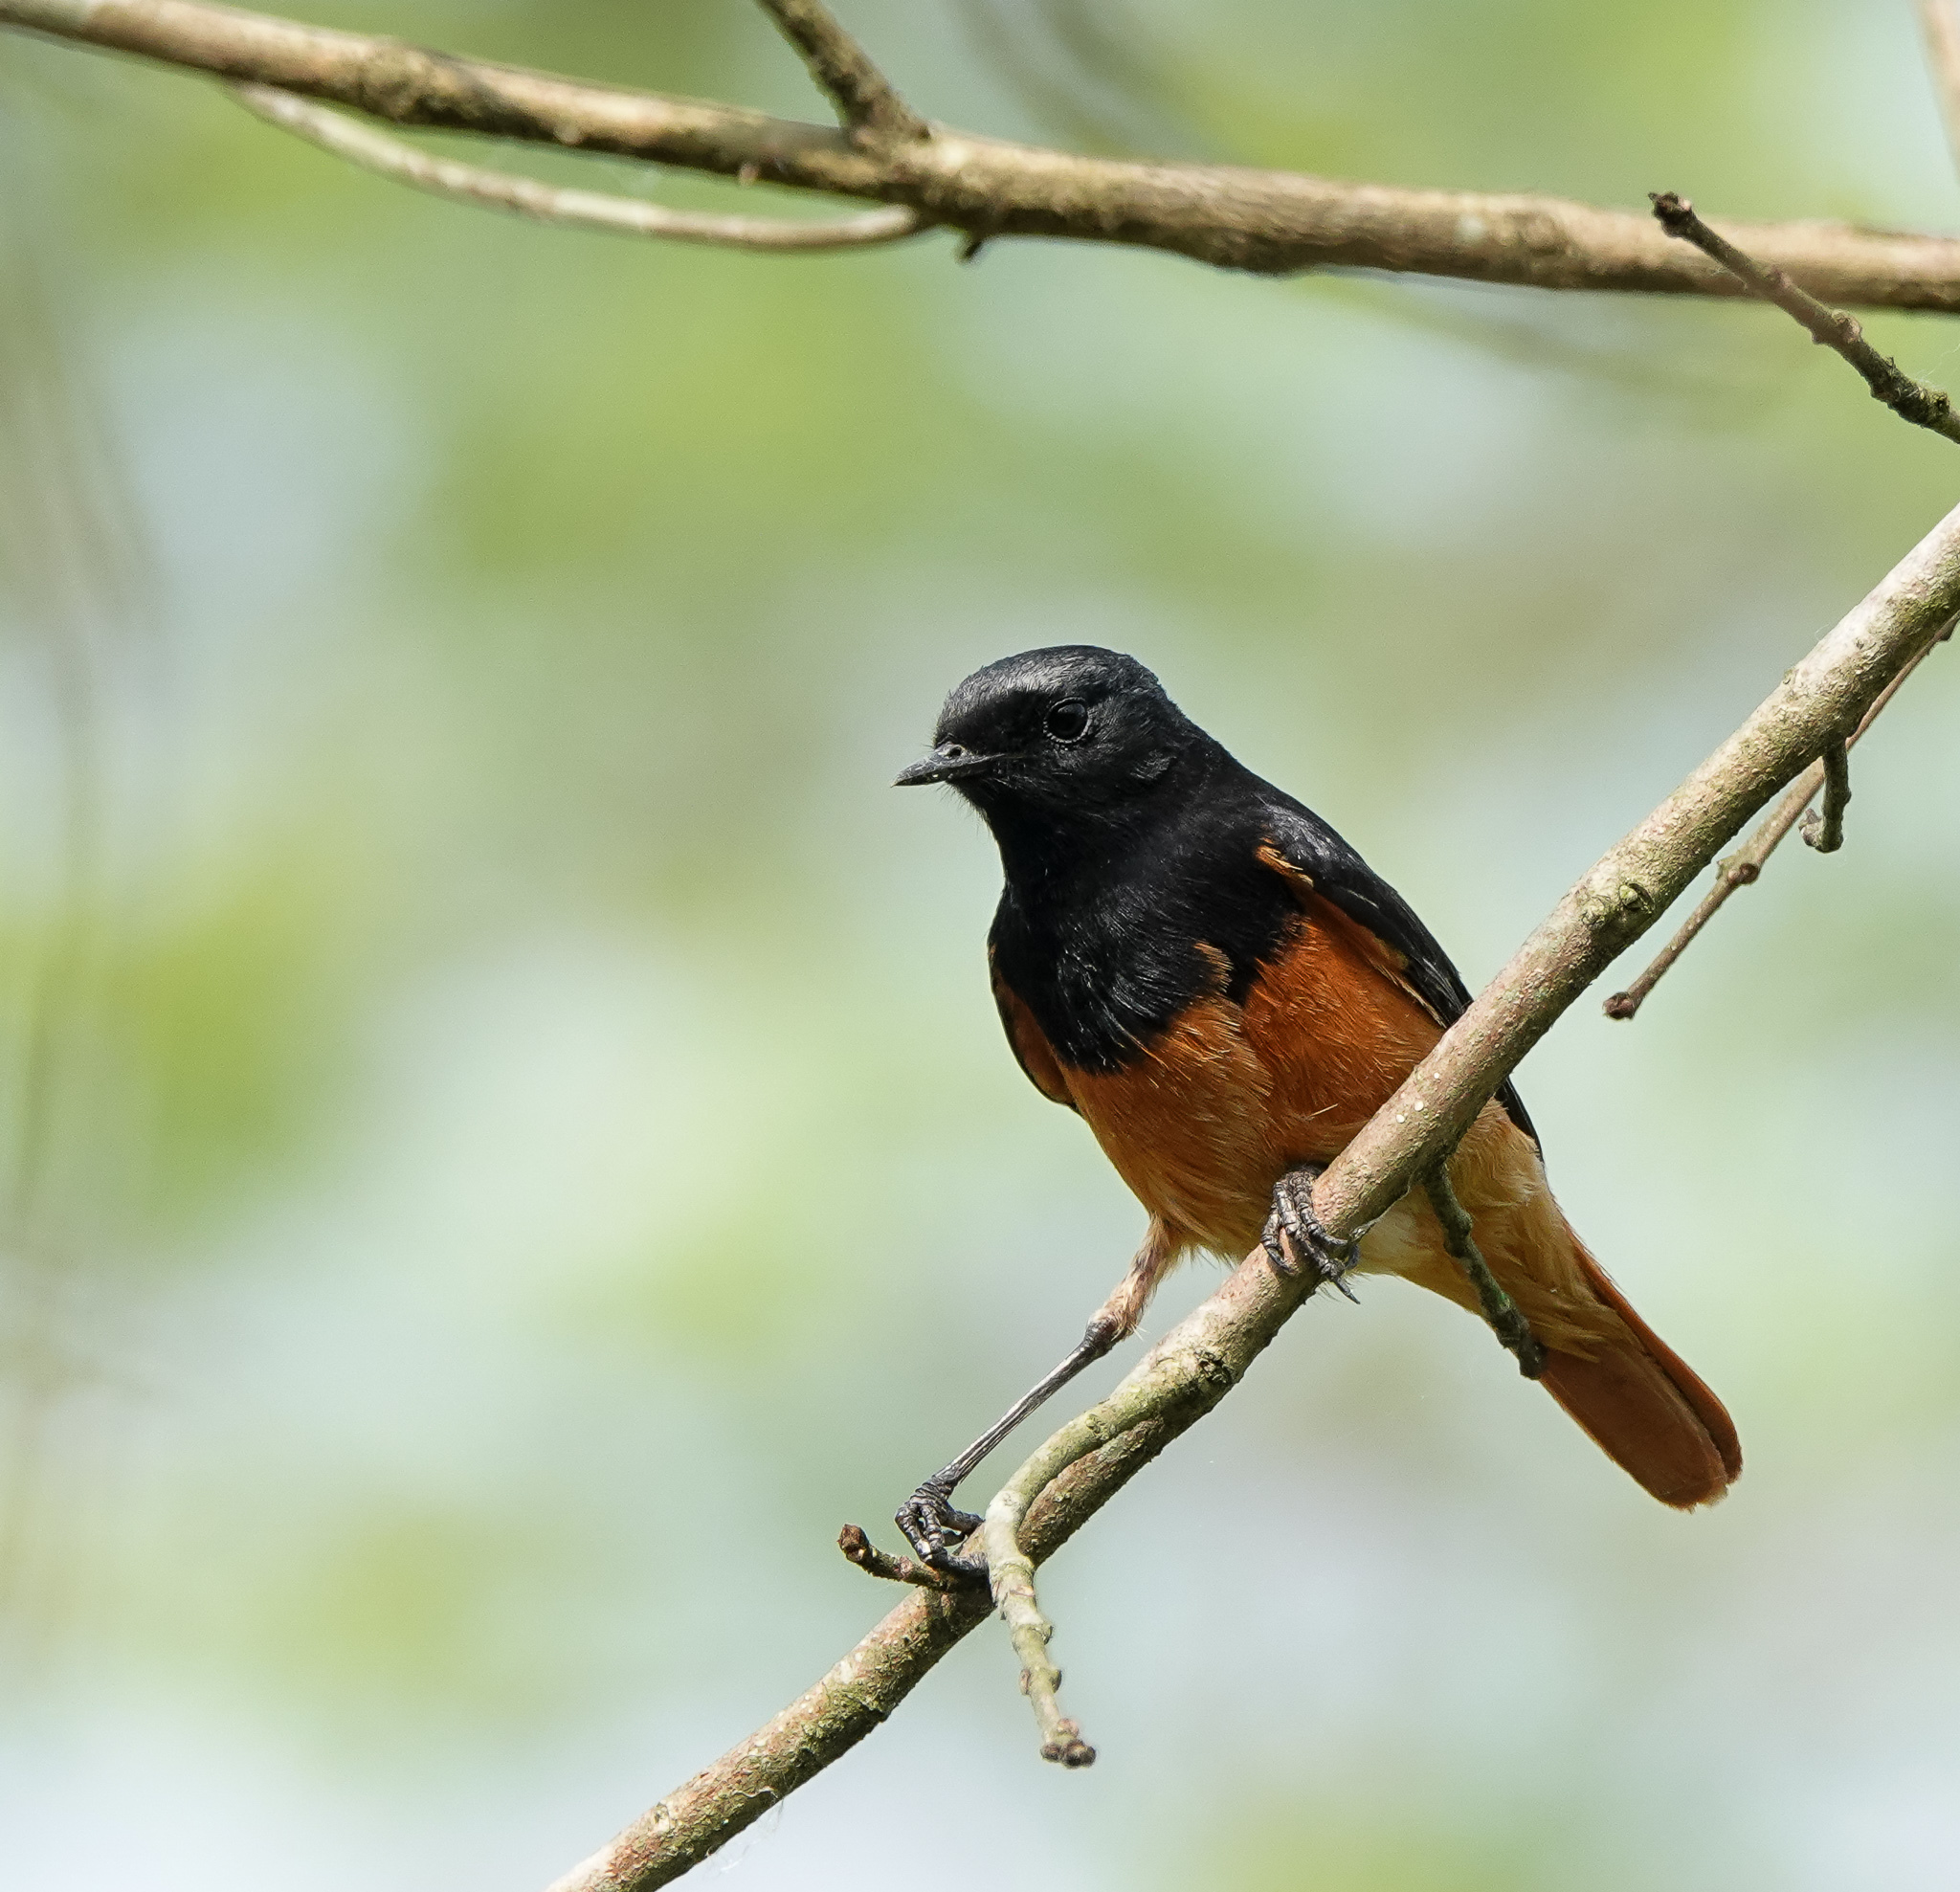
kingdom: Animalia
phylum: Chordata
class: Aves
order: Passeriformes
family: Muscicapidae
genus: Phoenicurus
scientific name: Phoenicurus ochruros
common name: Black redstart
